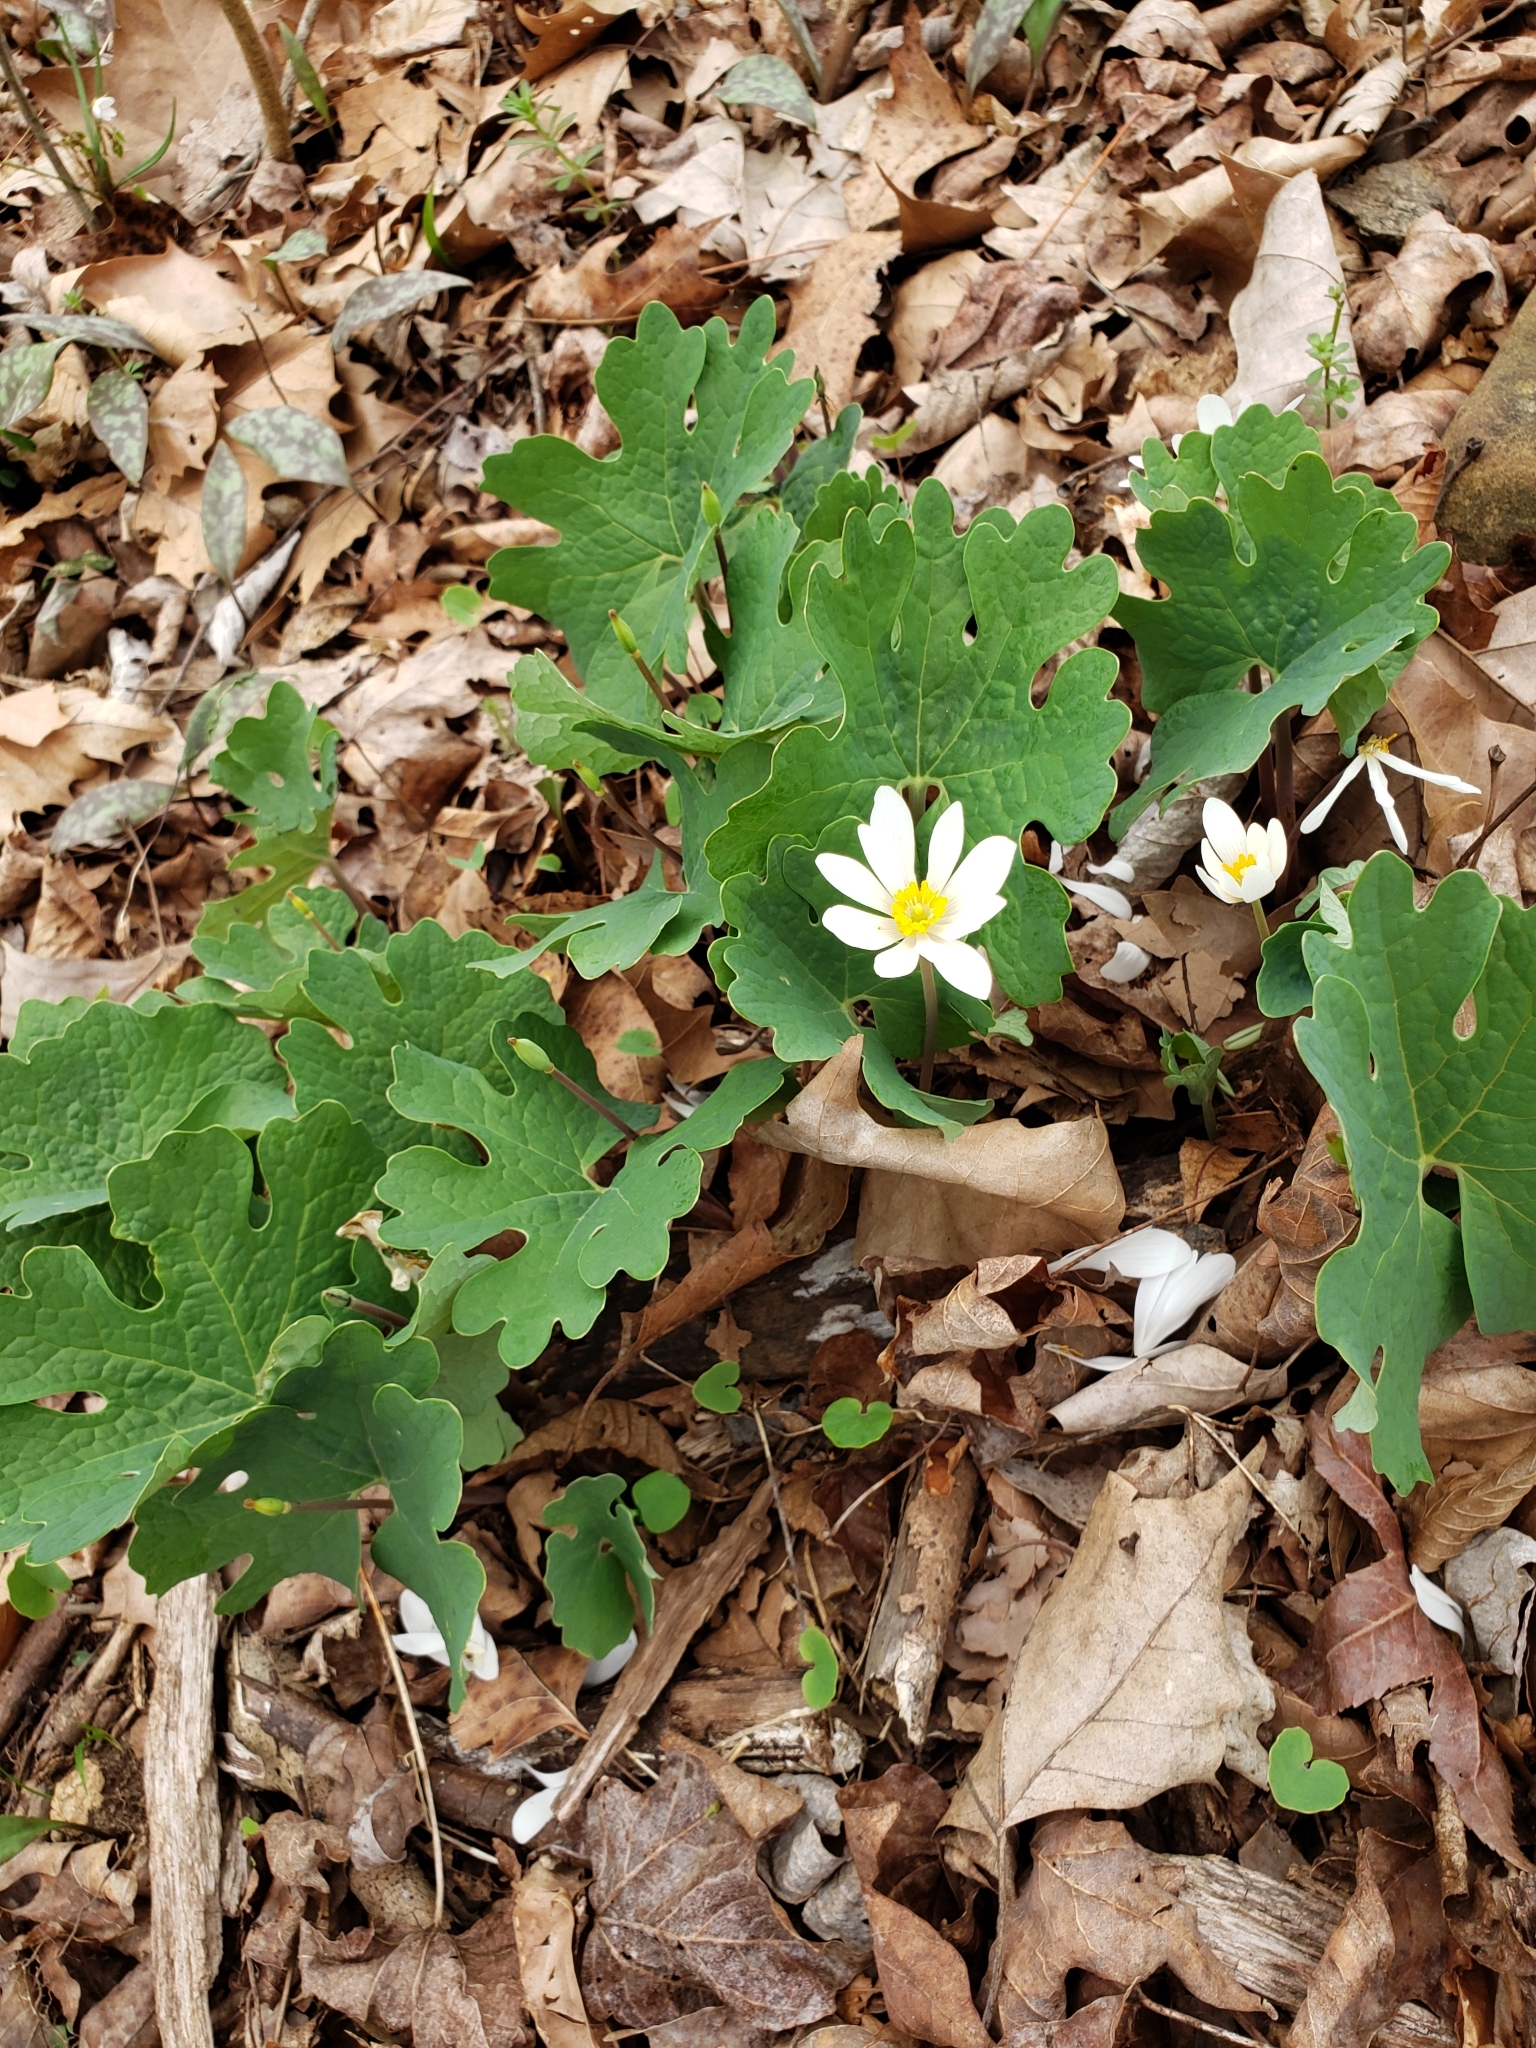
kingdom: Plantae
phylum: Tracheophyta
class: Magnoliopsida
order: Ranunculales
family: Papaveraceae
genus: Sanguinaria
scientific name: Sanguinaria canadensis
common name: Bloodroot
